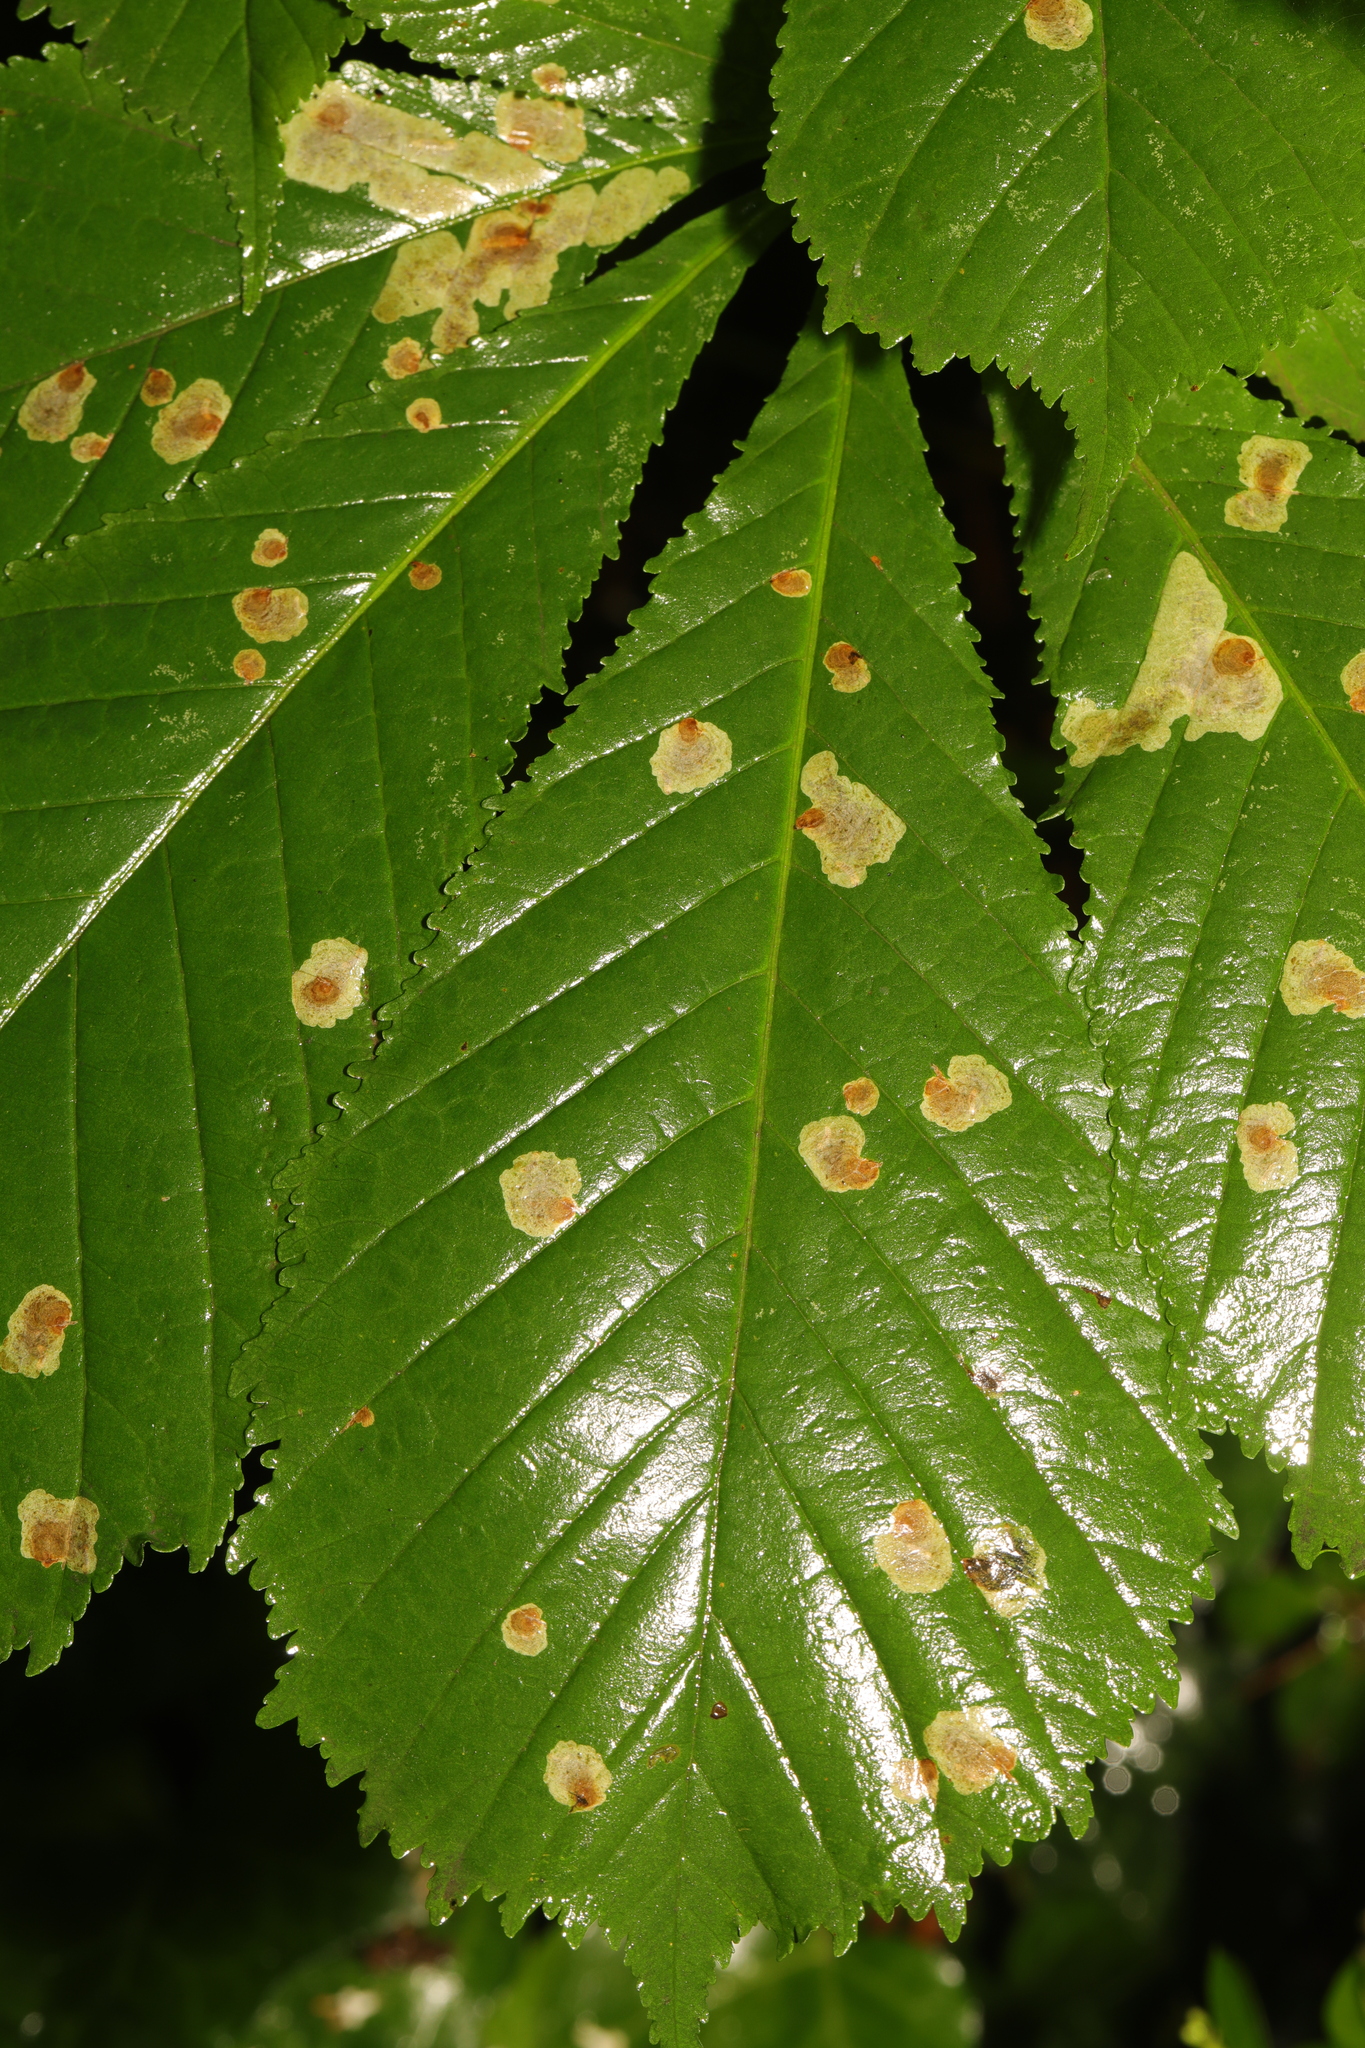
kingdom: Plantae
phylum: Tracheophyta
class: Magnoliopsida
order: Sapindales
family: Sapindaceae
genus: Aesculus
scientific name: Aesculus hippocastanum
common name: Horse-chestnut
